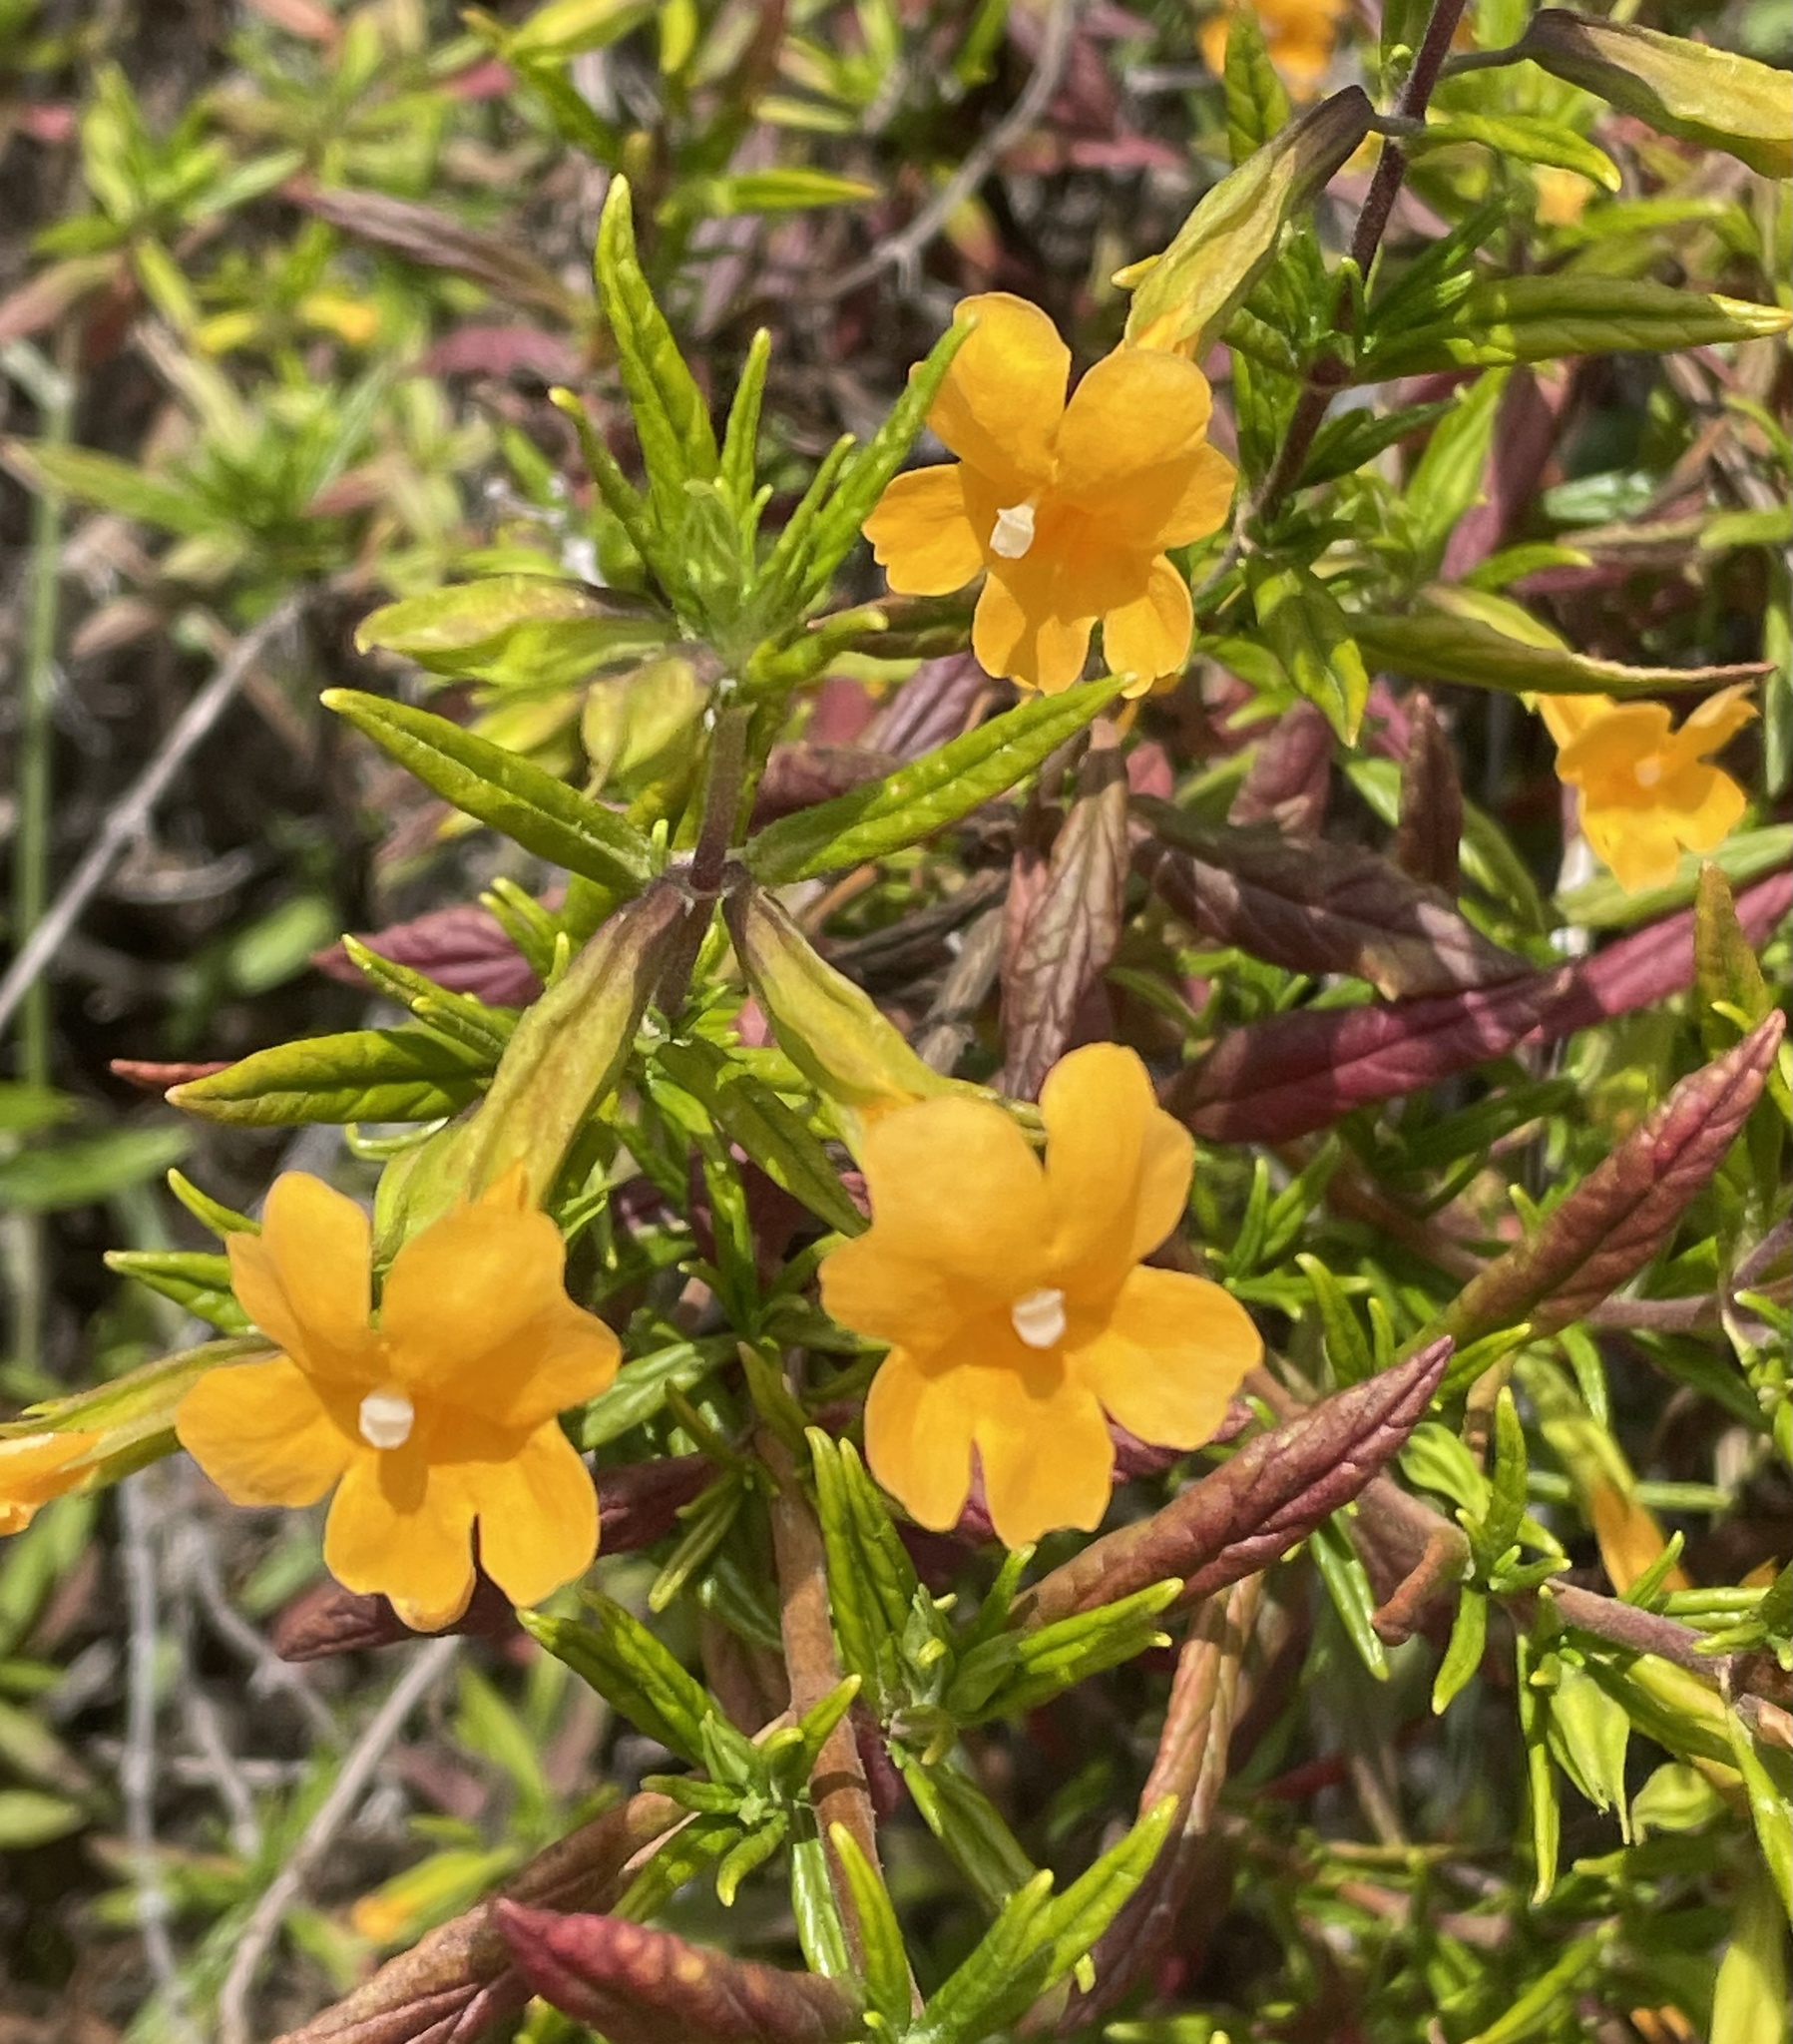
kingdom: Plantae
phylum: Tracheophyta
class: Magnoliopsida
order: Lamiales
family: Phrymaceae
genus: Diplacus
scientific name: Diplacus aurantiacus
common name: Bush monkey-flower
